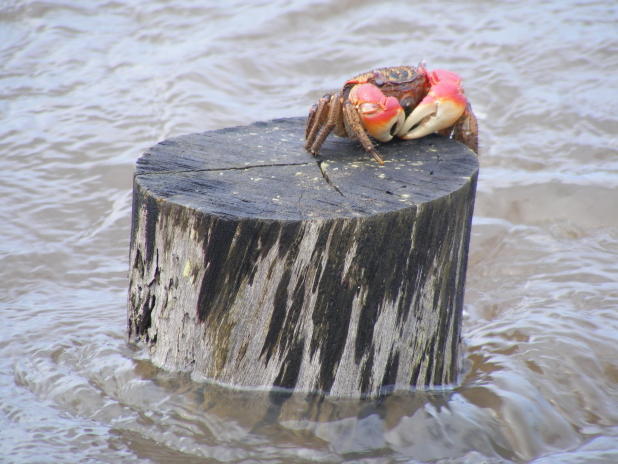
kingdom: Animalia
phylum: Arthropoda
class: Malacostraca
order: Decapoda
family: Sesarmidae
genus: Neosarmatium
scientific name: Neosarmatium africanum
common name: East african red mangrove crab
